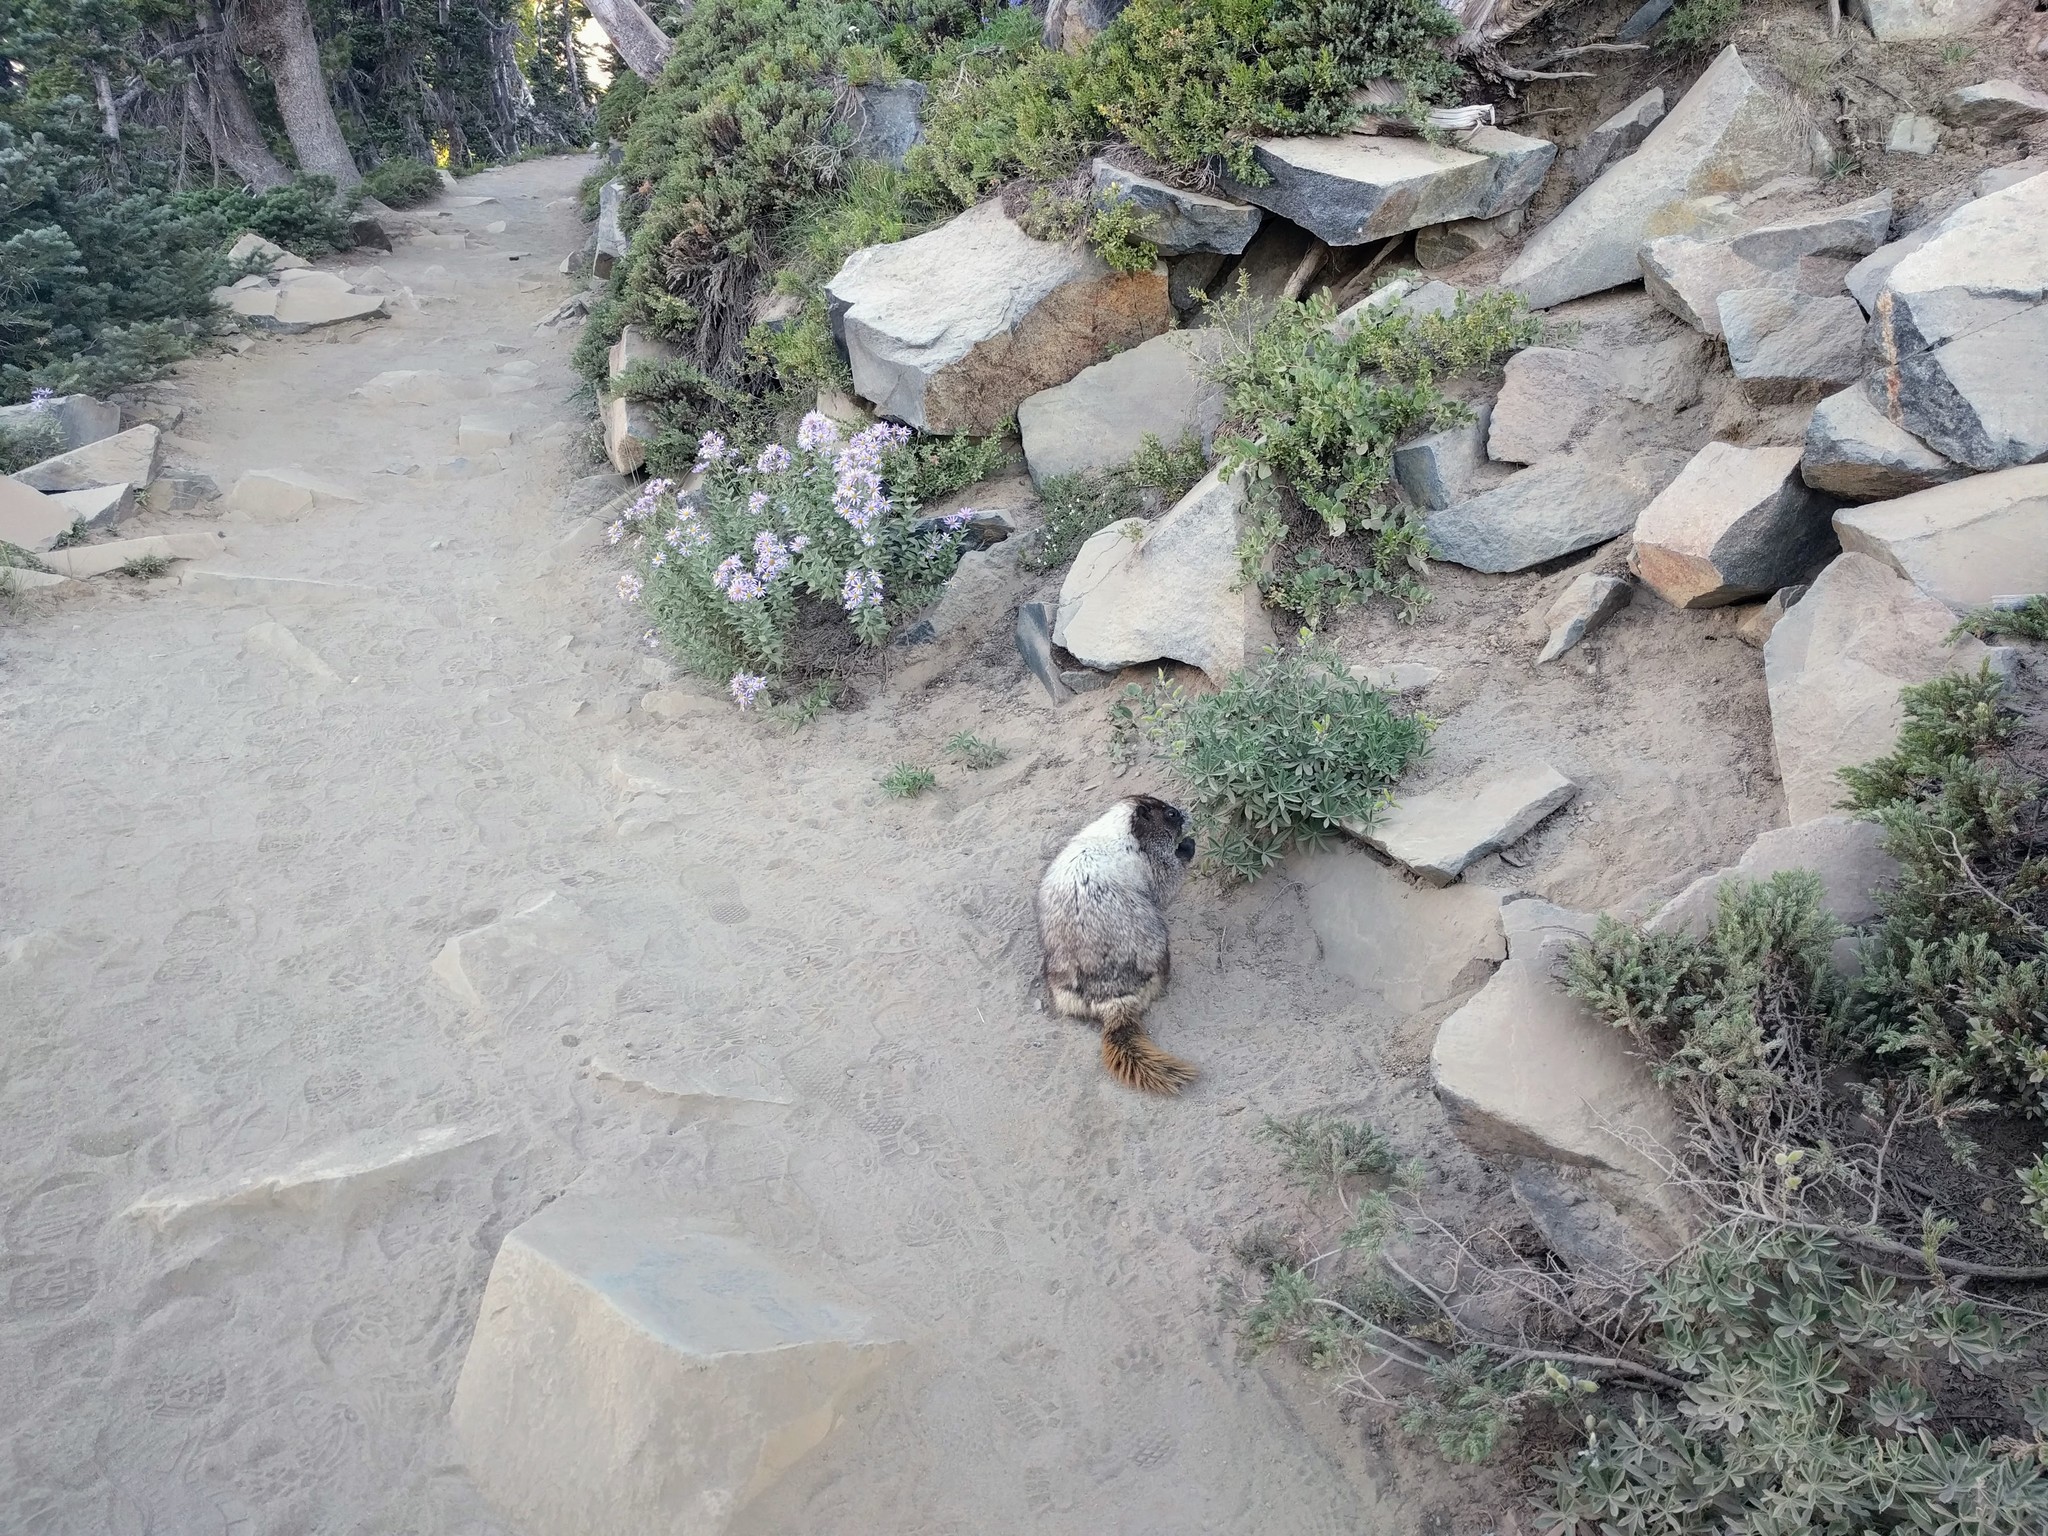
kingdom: Animalia
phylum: Chordata
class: Mammalia
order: Rodentia
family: Sciuridae
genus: Marmota
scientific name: Marmota caligata
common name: Hoary marmot
